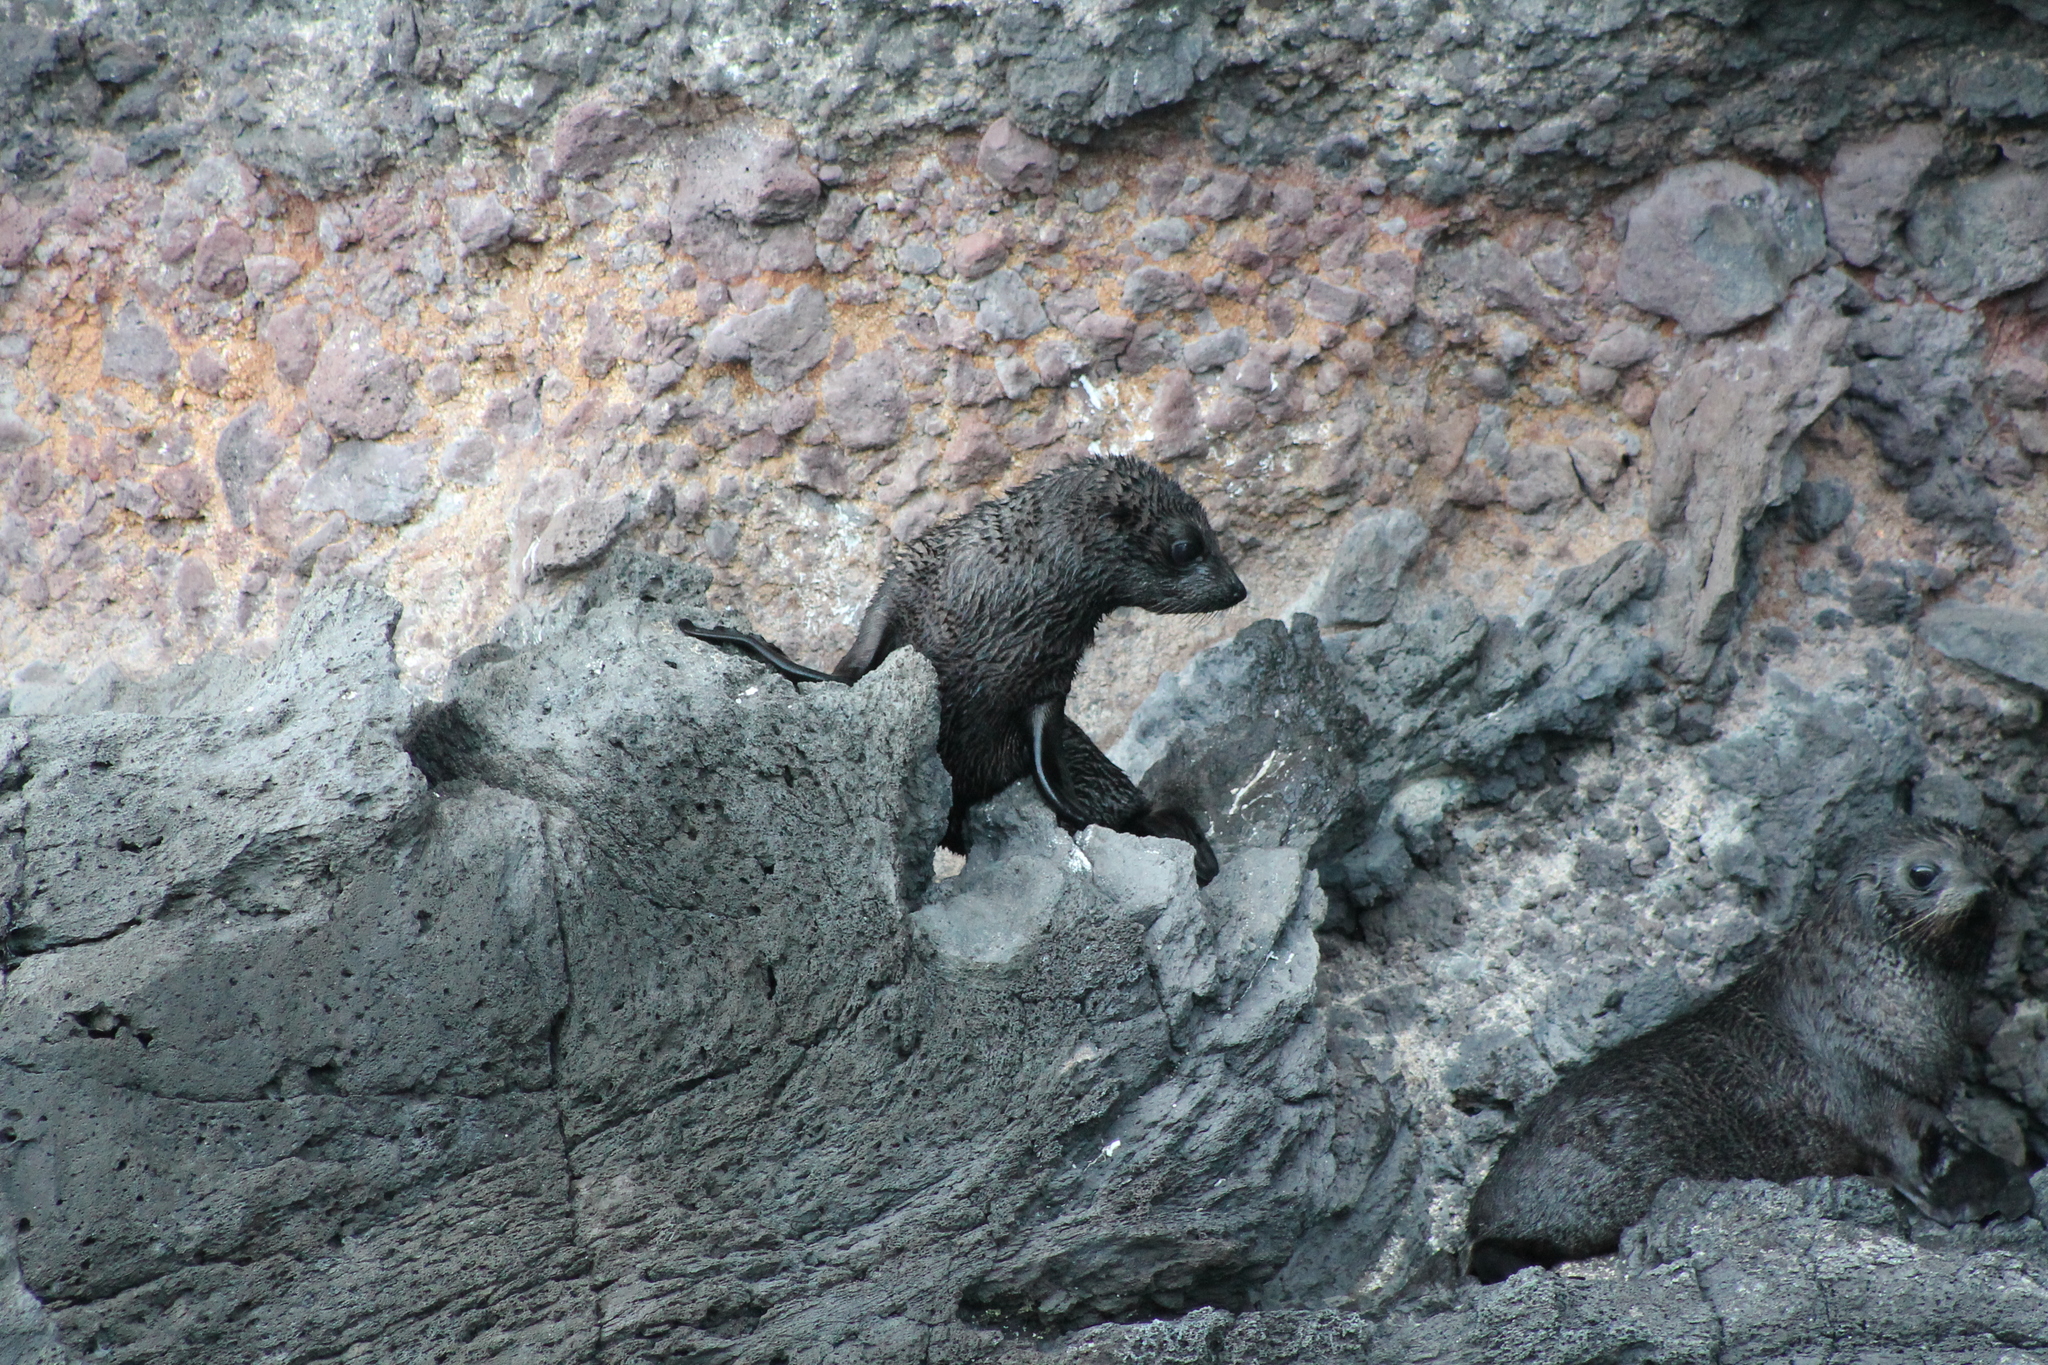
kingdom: Animalia
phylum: Chordata
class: Mammalia
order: Carnivora
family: Otariidae
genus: Arctocephalus
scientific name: Arctocephalus forsteri
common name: New zealand fur seal
